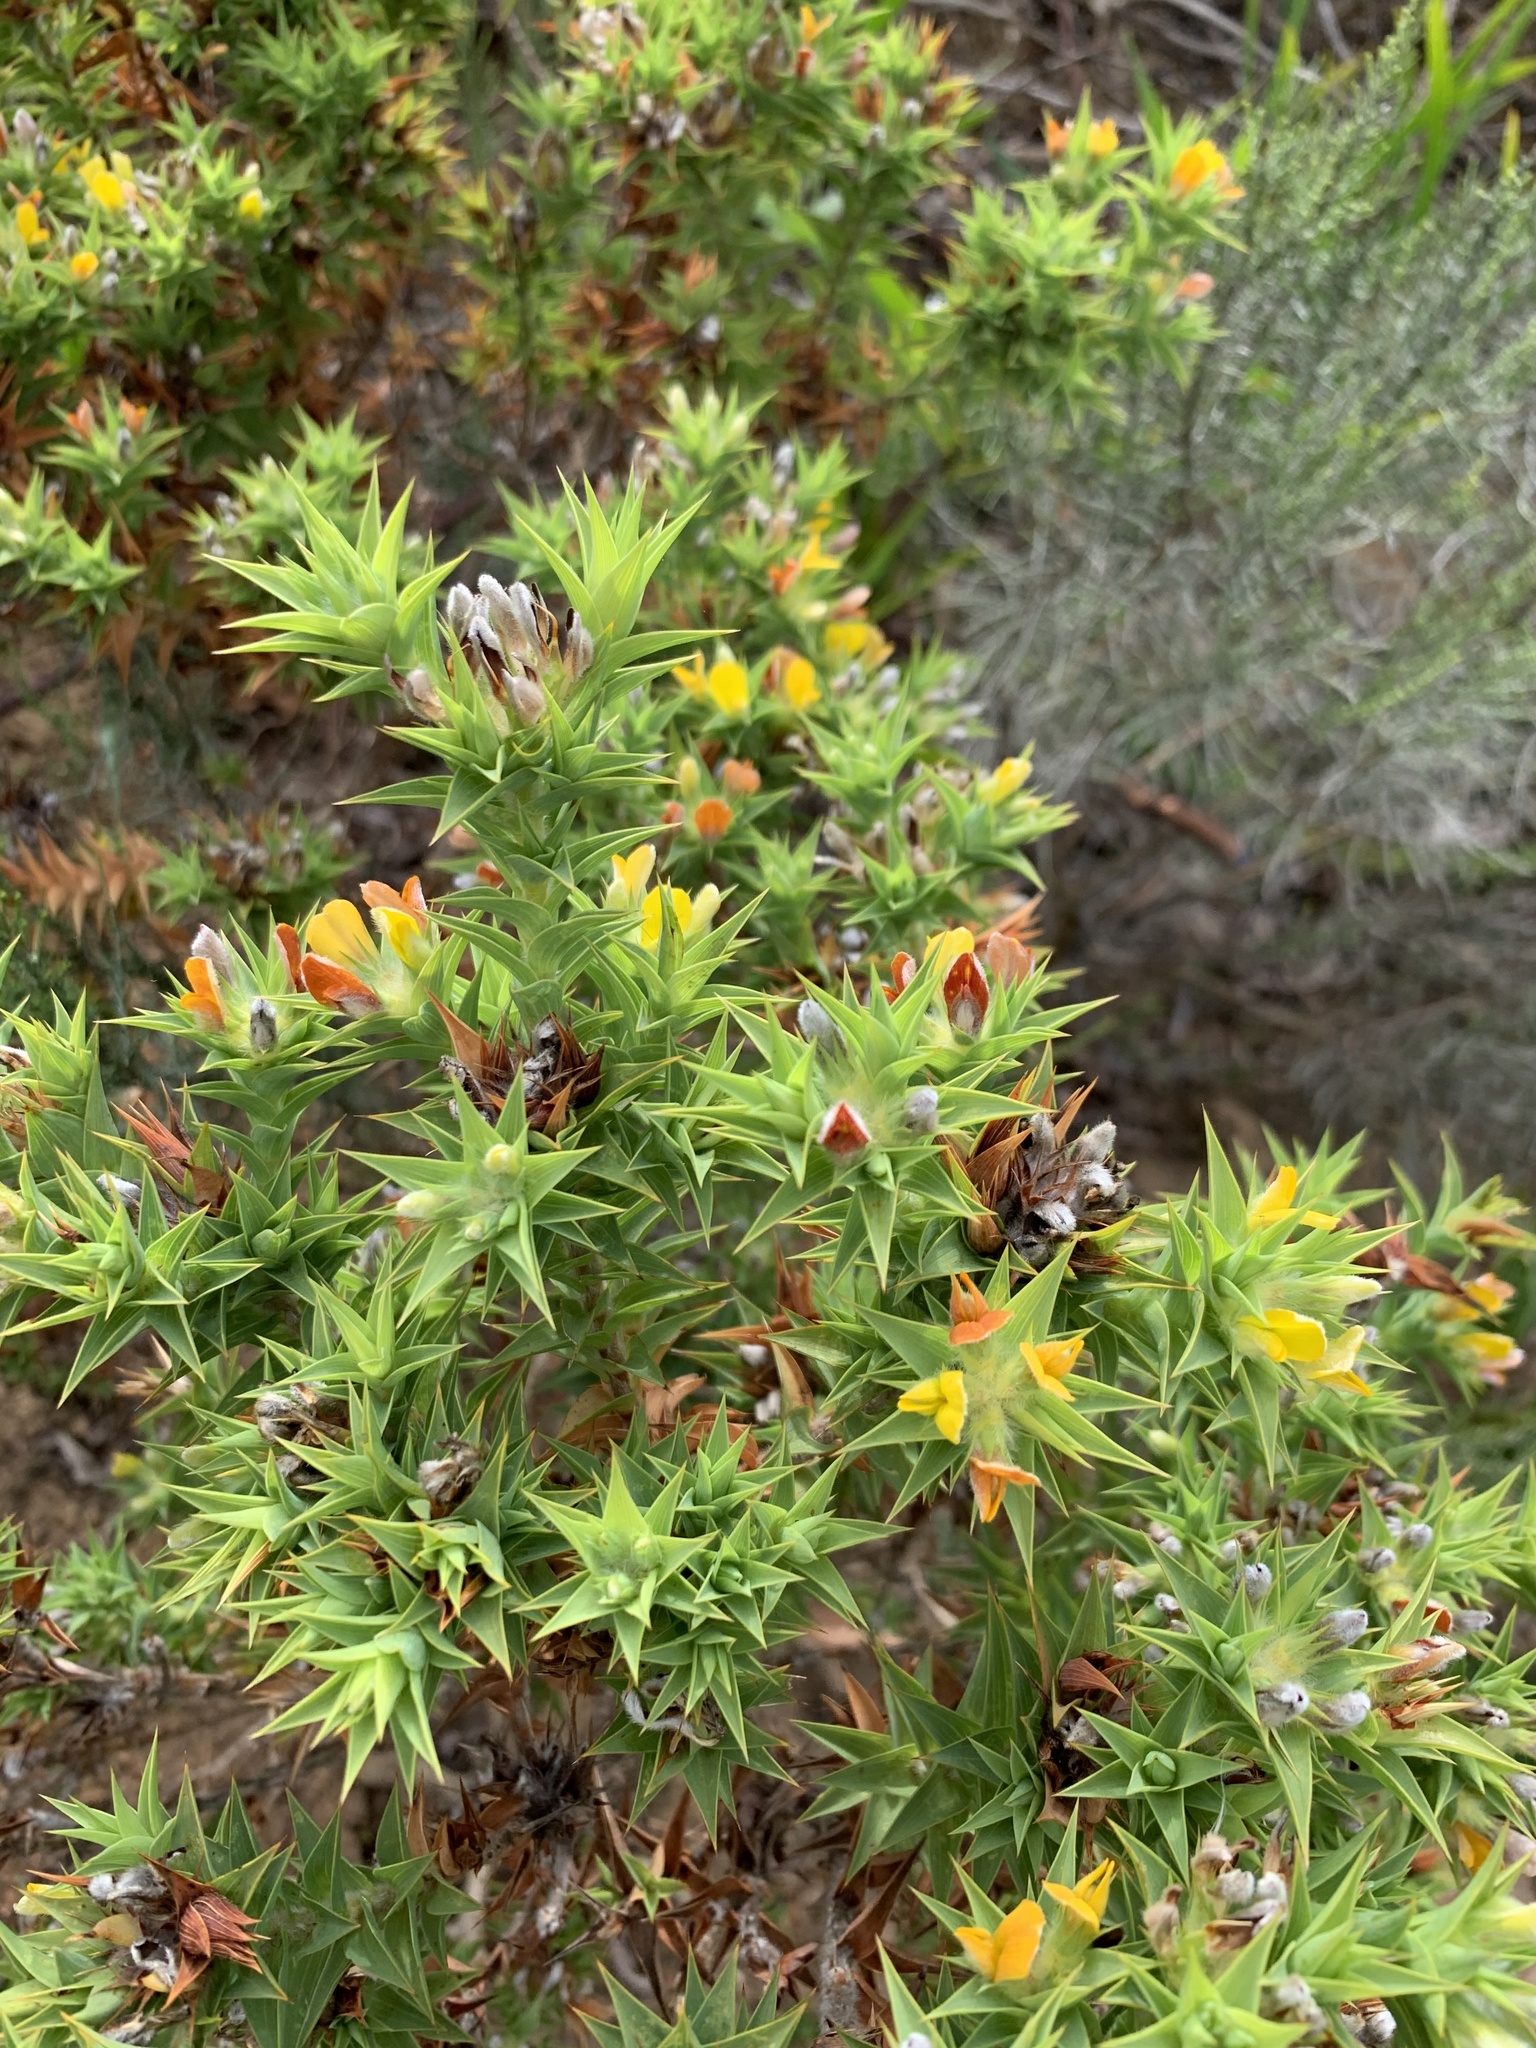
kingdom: Plantae
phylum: Tracheophyta
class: Magnoliopsida
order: Fabales
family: Fabaceae
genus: Aspalathus
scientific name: Aspalathus cordata
